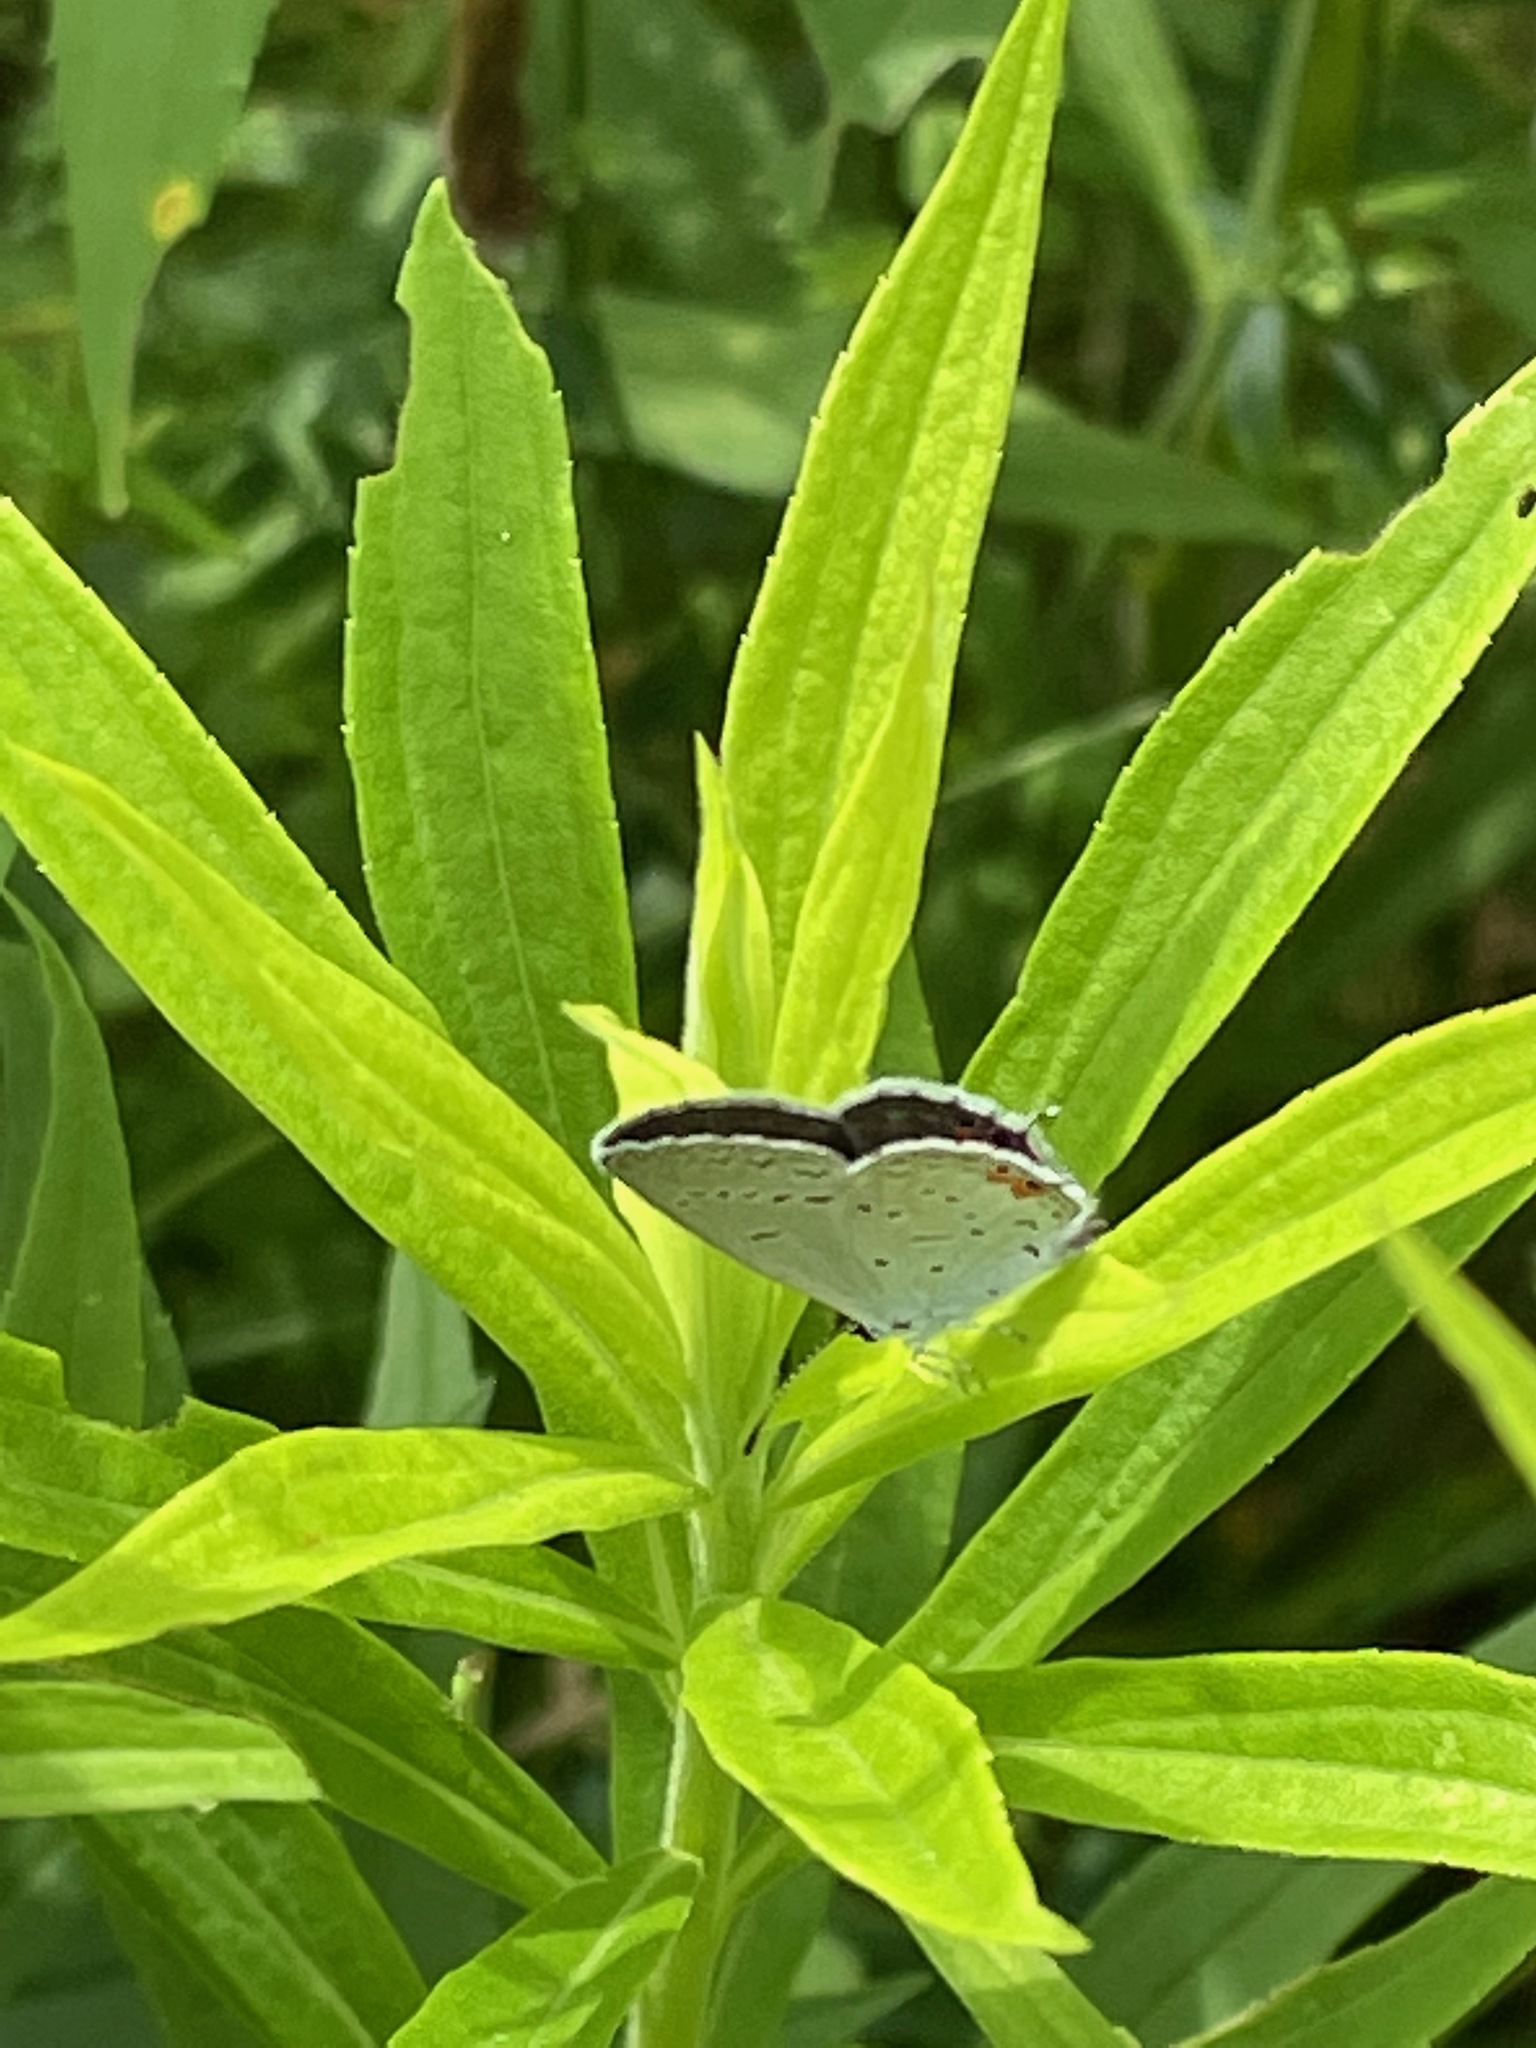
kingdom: Animalia
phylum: Arthropoda
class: Insecta
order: Lepidoptera
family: Lycaenidae
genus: Elkalyce
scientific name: Elkalyce comyntas
